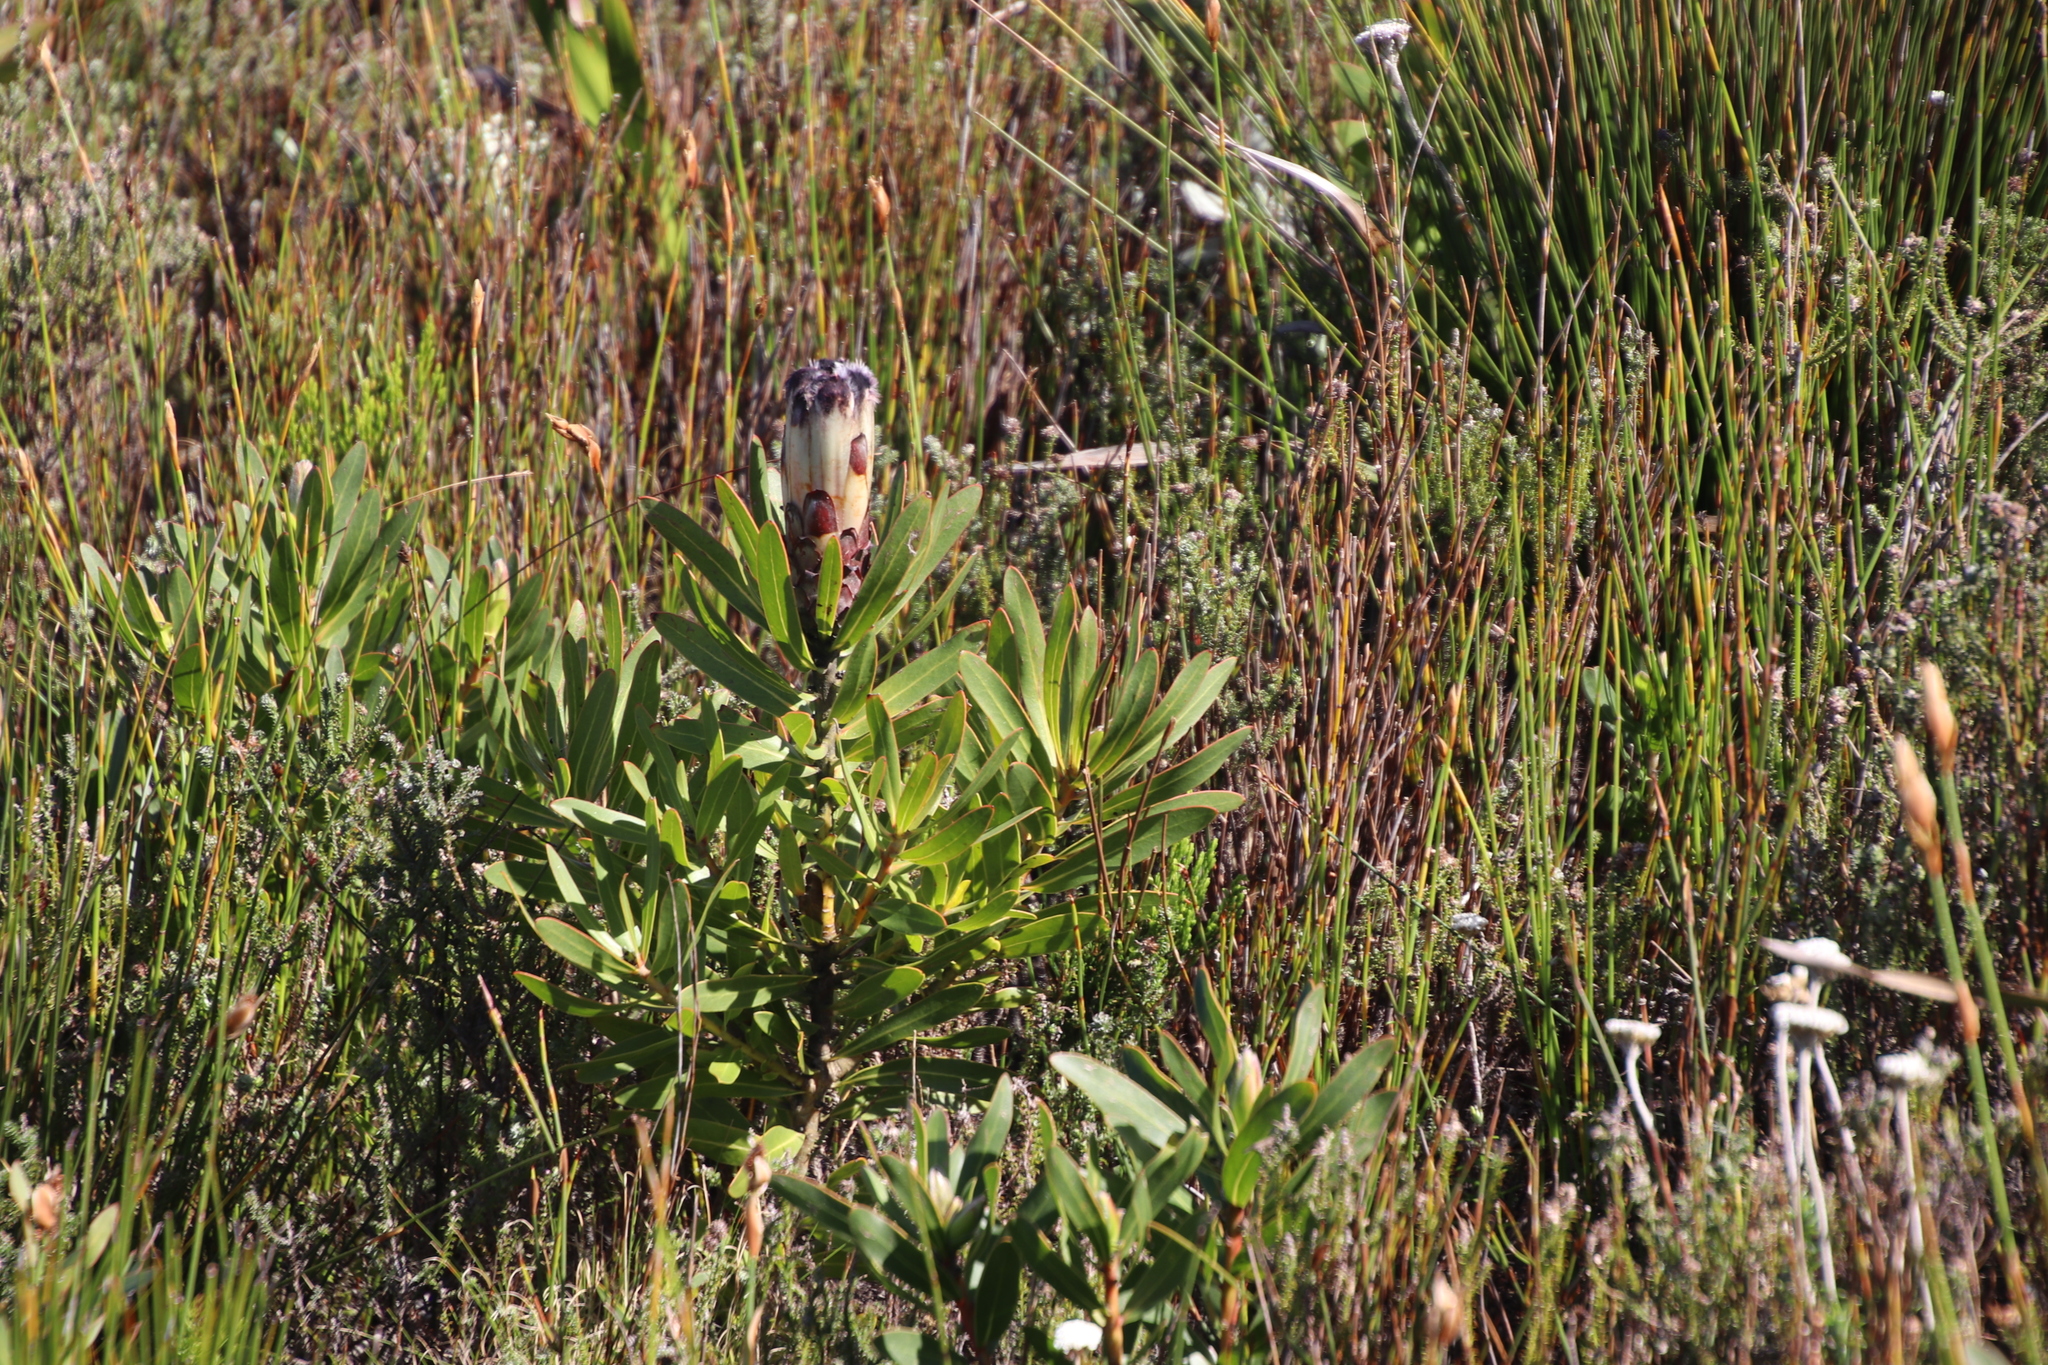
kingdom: Plantae
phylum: Tracheophyta
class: Magnoliopsida
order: Proteales
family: Proteaceae
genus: Protea
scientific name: Protea lepidocarpodendron
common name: Black-bearded protea
